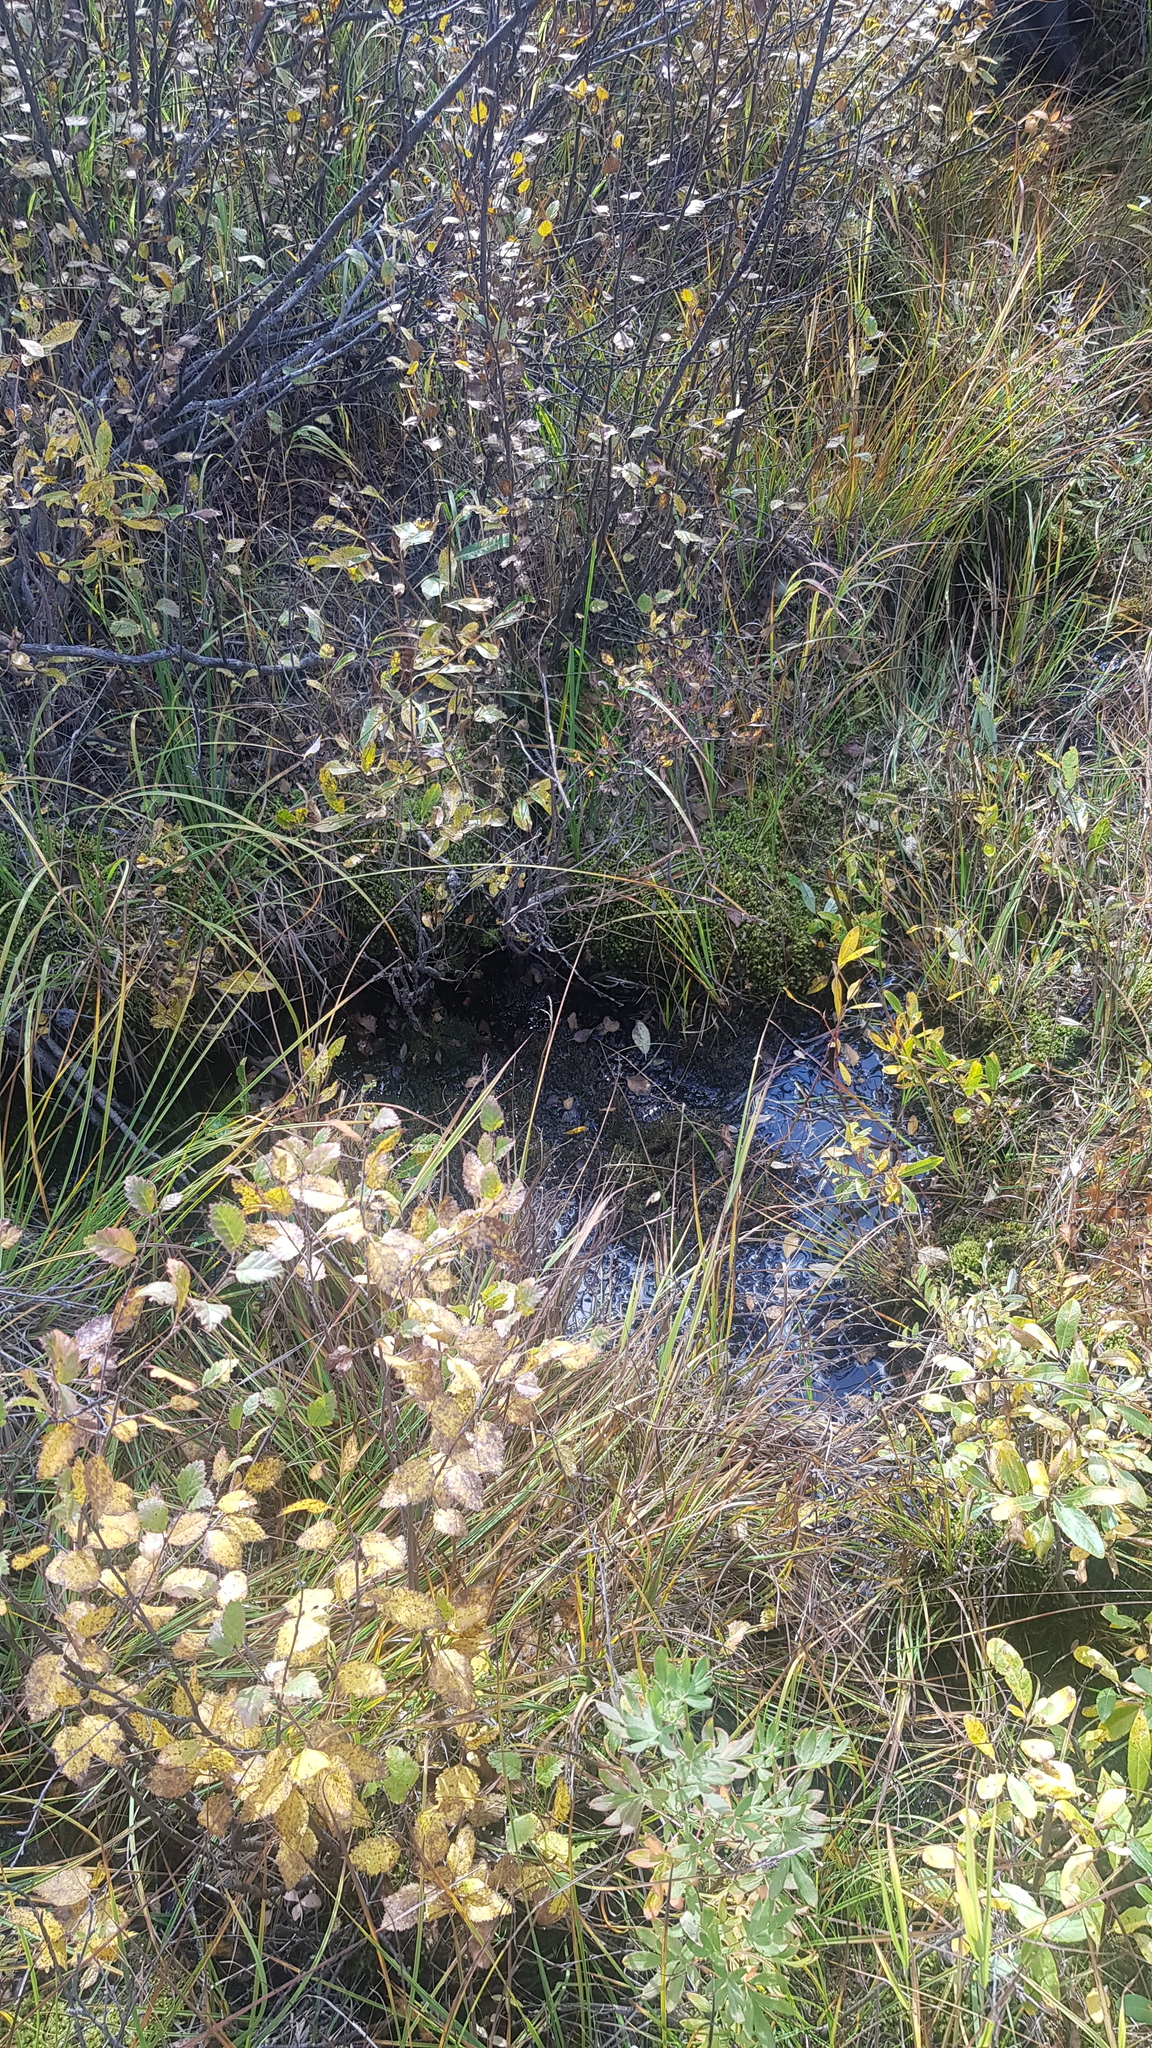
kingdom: Plantae
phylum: Tracheophyta
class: Magnoliopsida
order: Fagales
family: Betulaceae
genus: Betula
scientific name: Betula fruticosa
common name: Japanese bog birch
